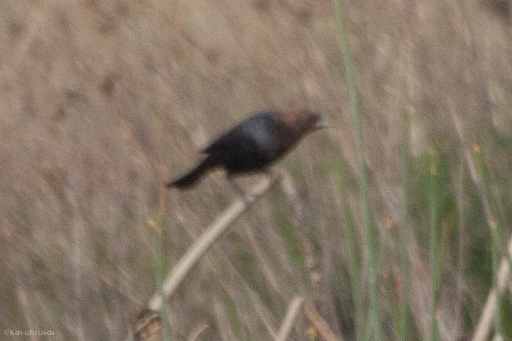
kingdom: Animalia
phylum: Chordata
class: Aves
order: Passeriformes
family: Icteridae
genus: Molothrus
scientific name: Molothrus ater
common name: Brown-headed cowbird
